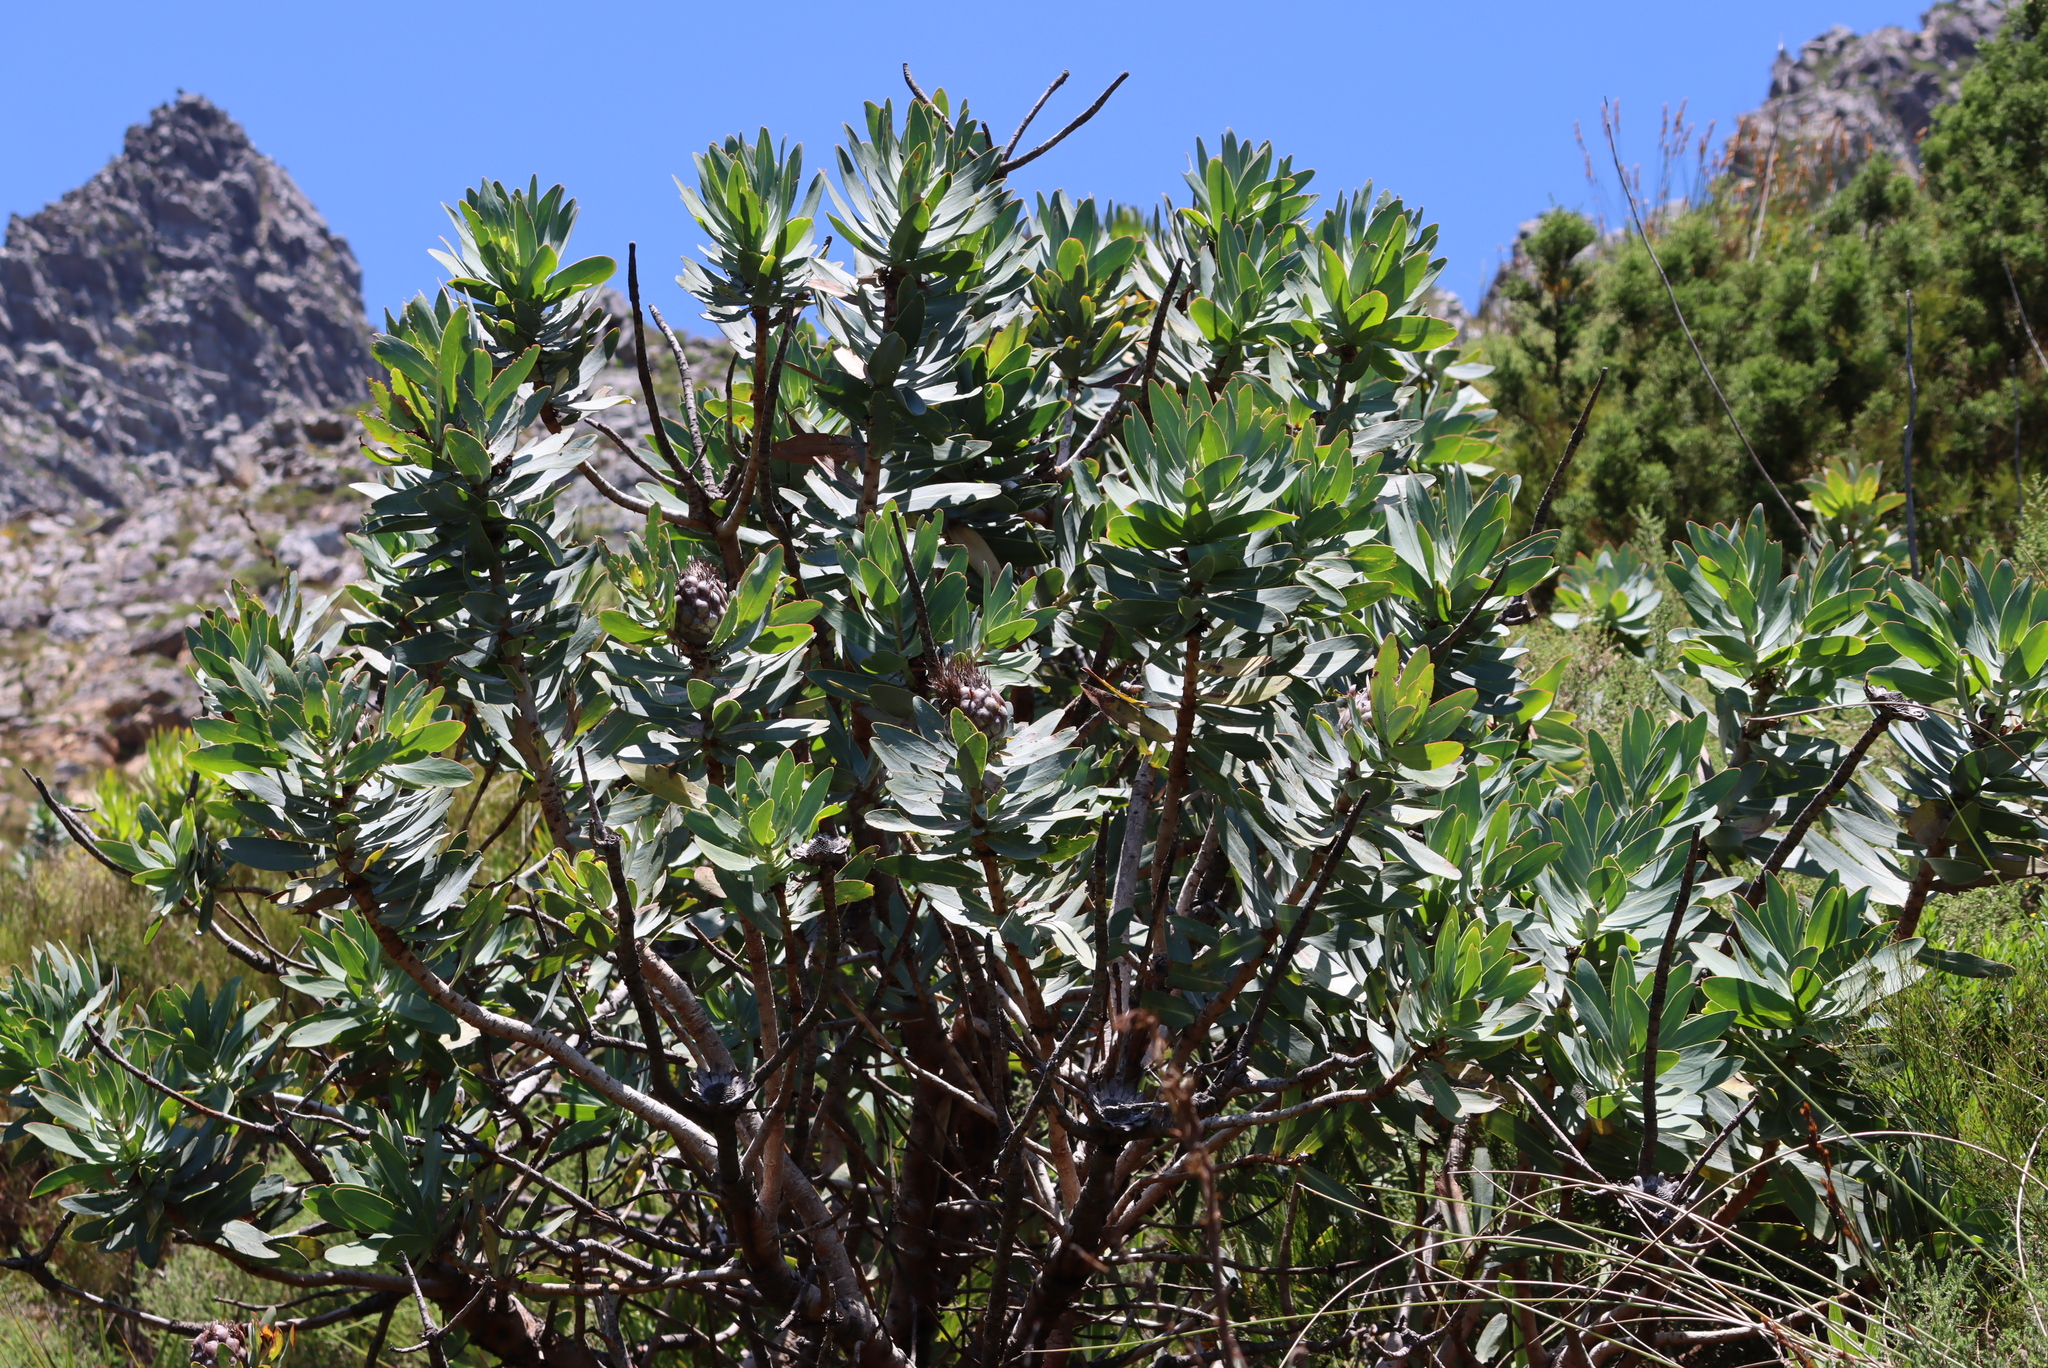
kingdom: Plantae
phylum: Tracheophyta
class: Magnoliopsida
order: Proteales
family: Proteaceae
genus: Protea
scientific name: Protea nitida
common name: Tree protea
